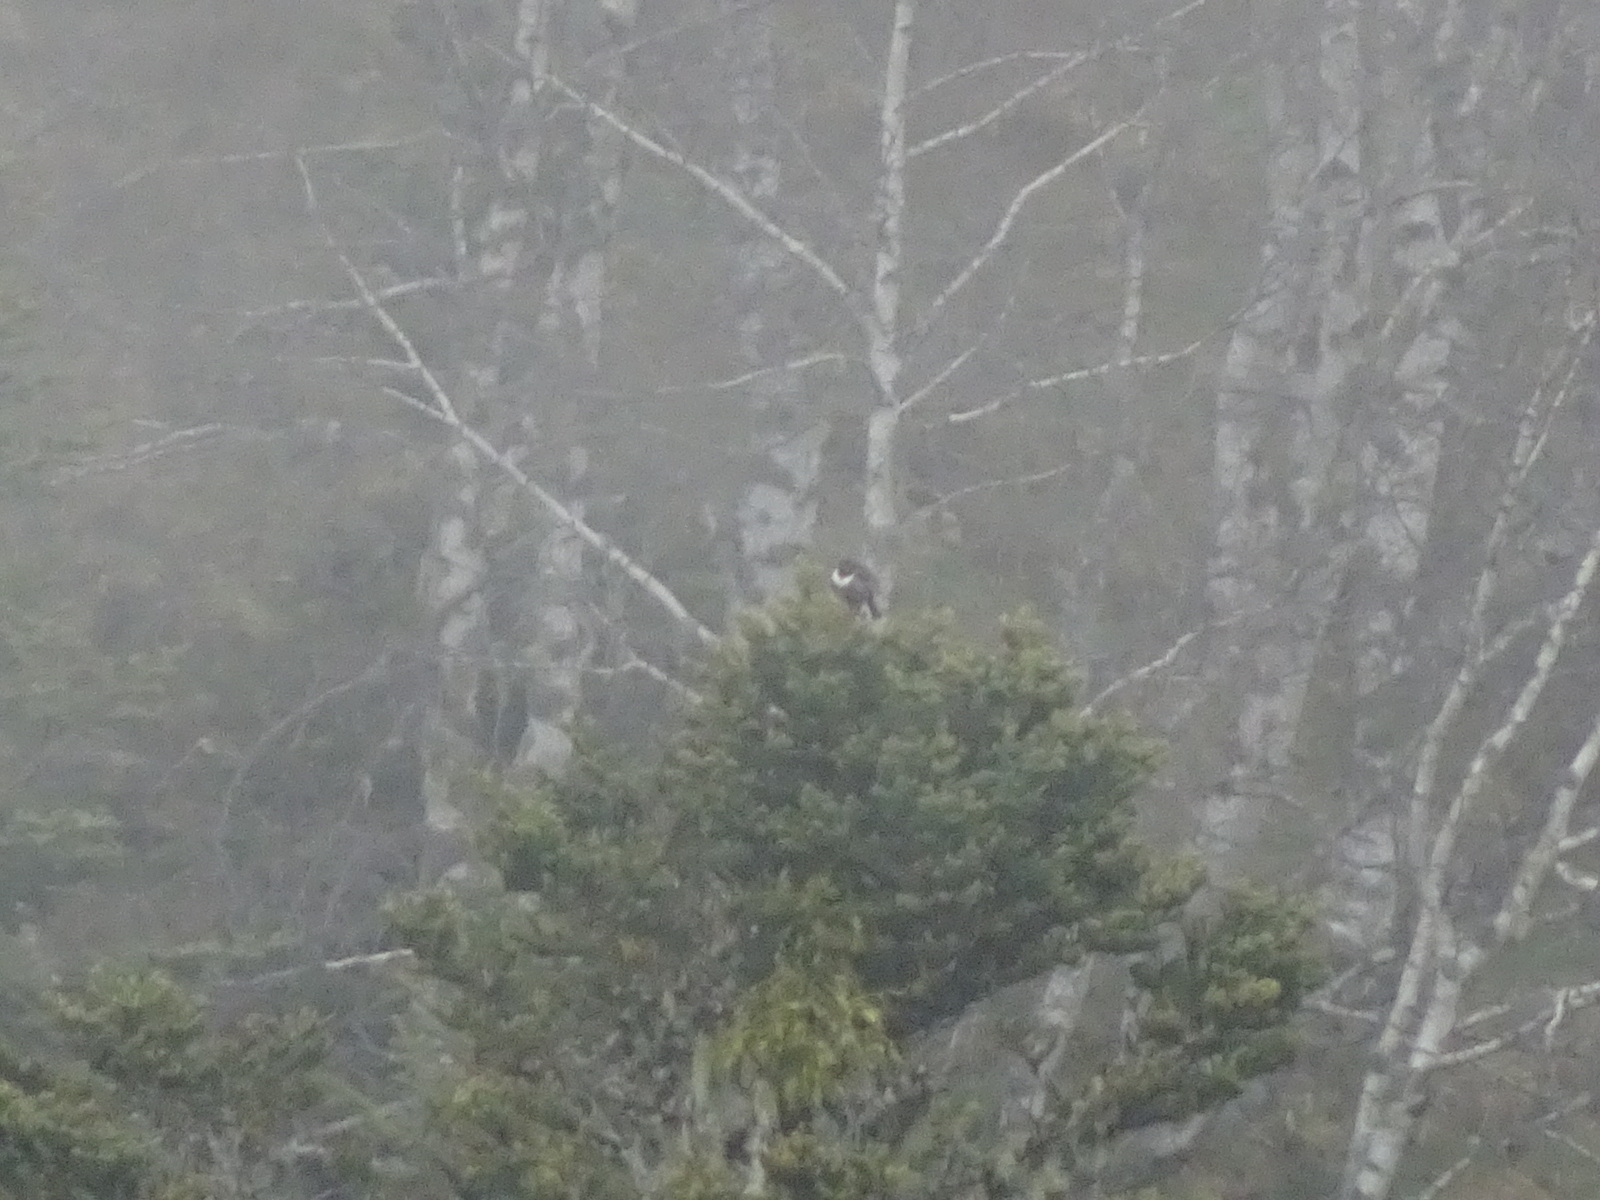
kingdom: Animalia
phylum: Chordata
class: Aves
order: Passeriformes
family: Turdidae
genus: Turdus
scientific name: Turdus torquatus
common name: Ring ouzel
